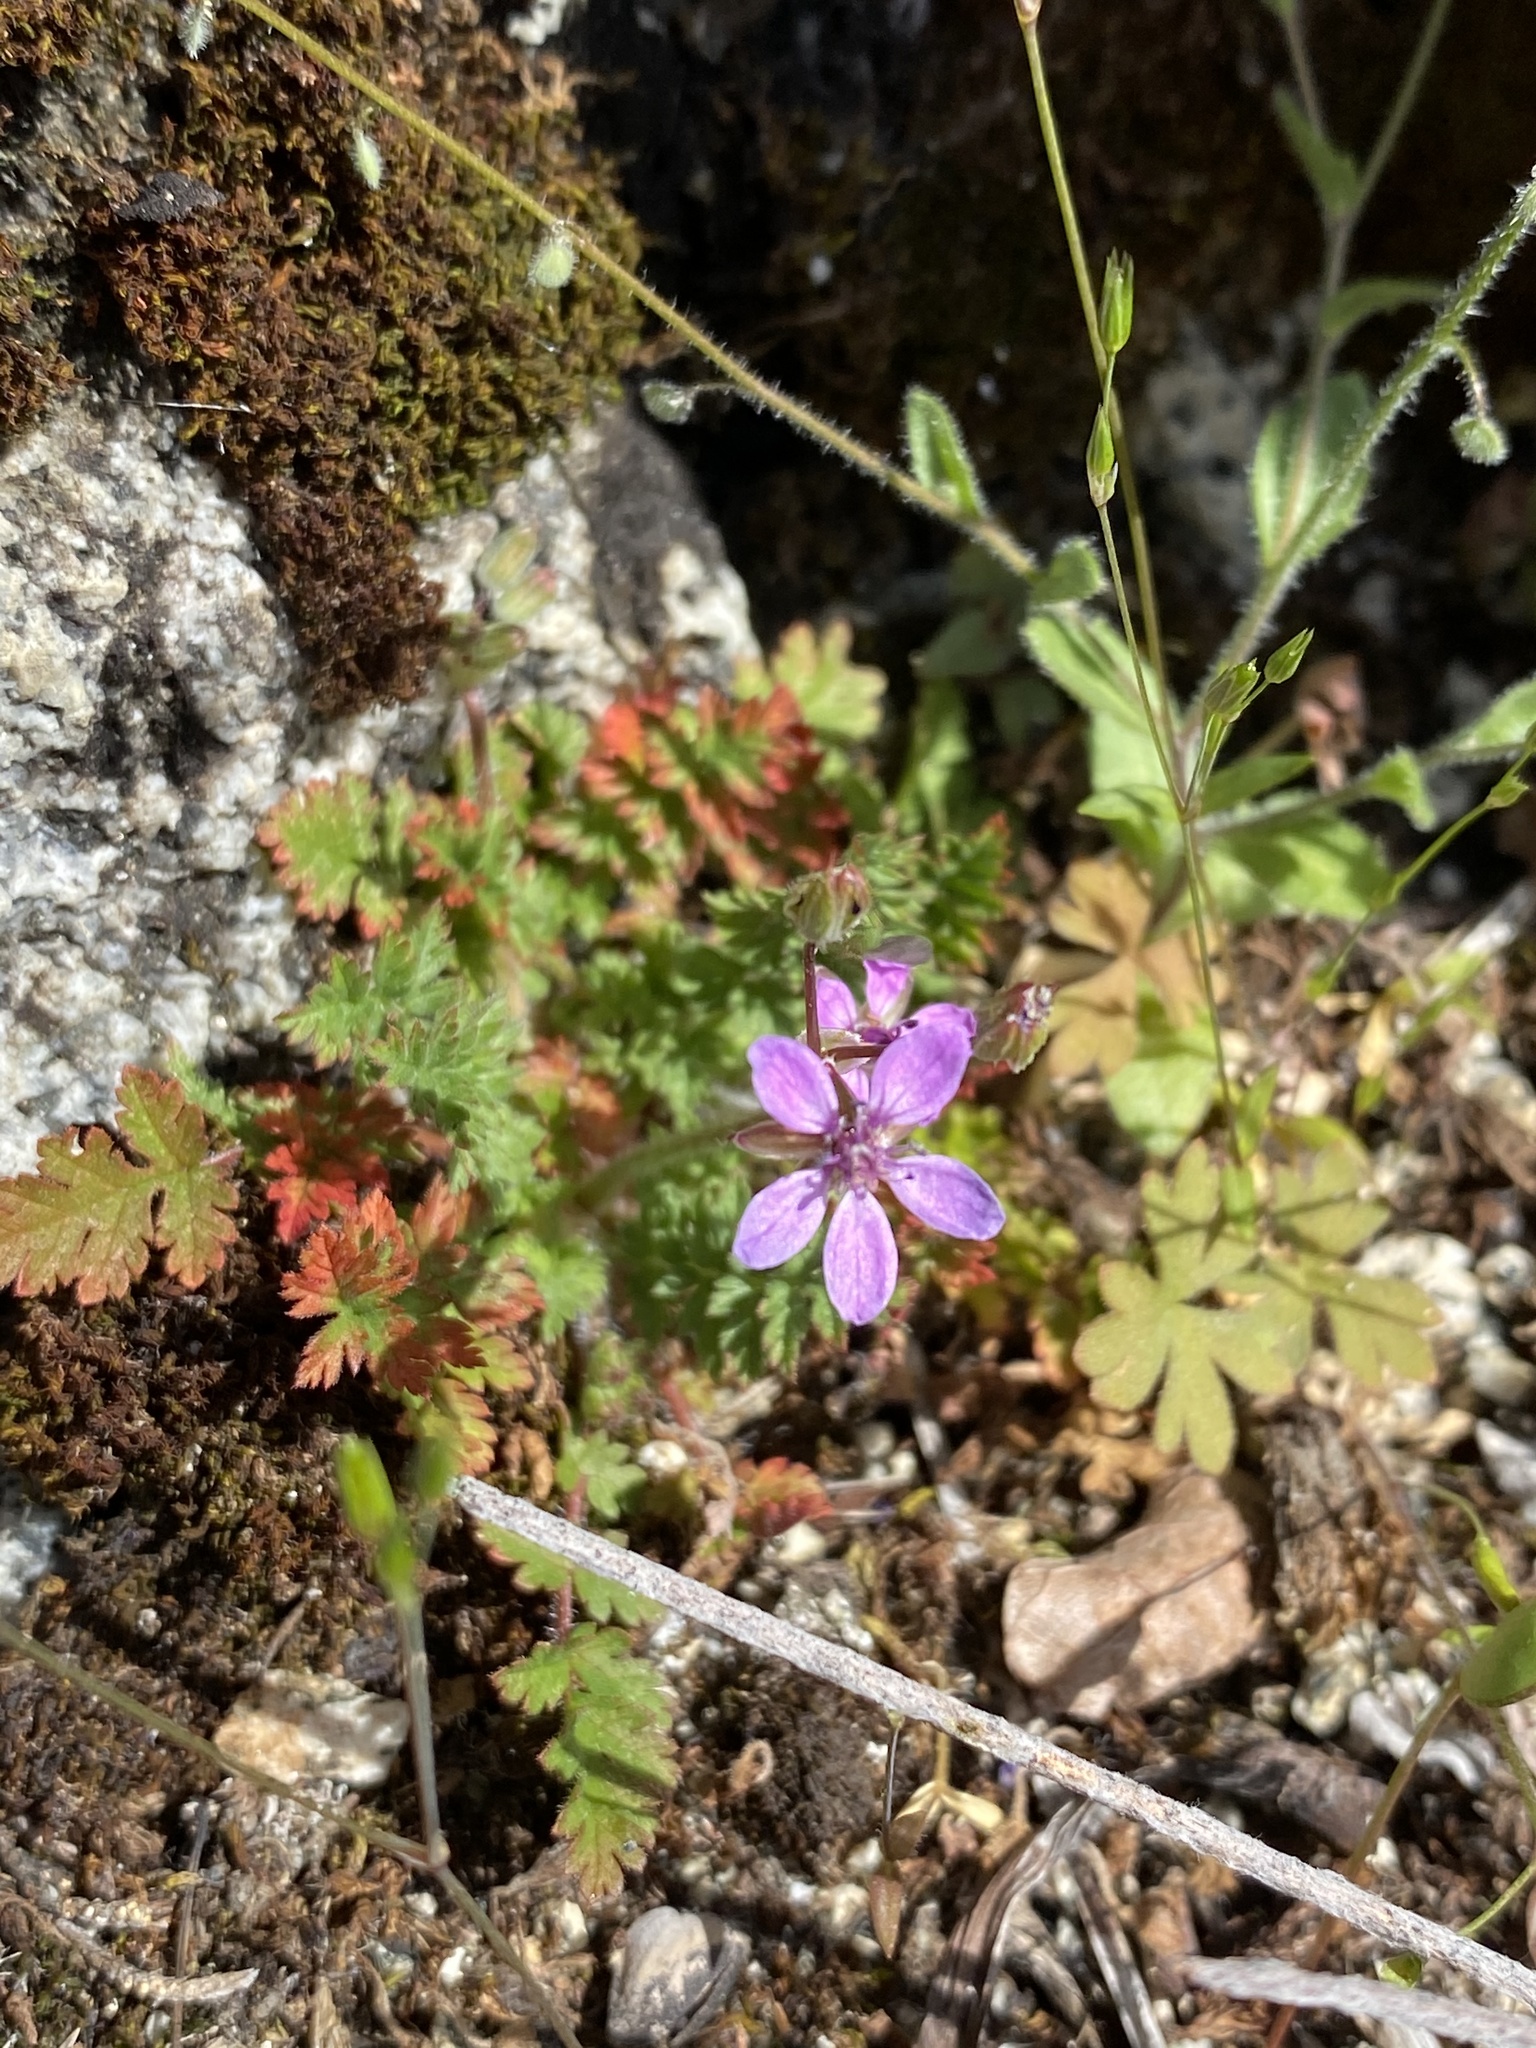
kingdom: Plantae
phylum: Tracheophyta
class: Magnoliopsida
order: Geraniales
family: Geraniaceae
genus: Erodium
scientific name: Erodium cicutarium
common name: Common stork's-bill
